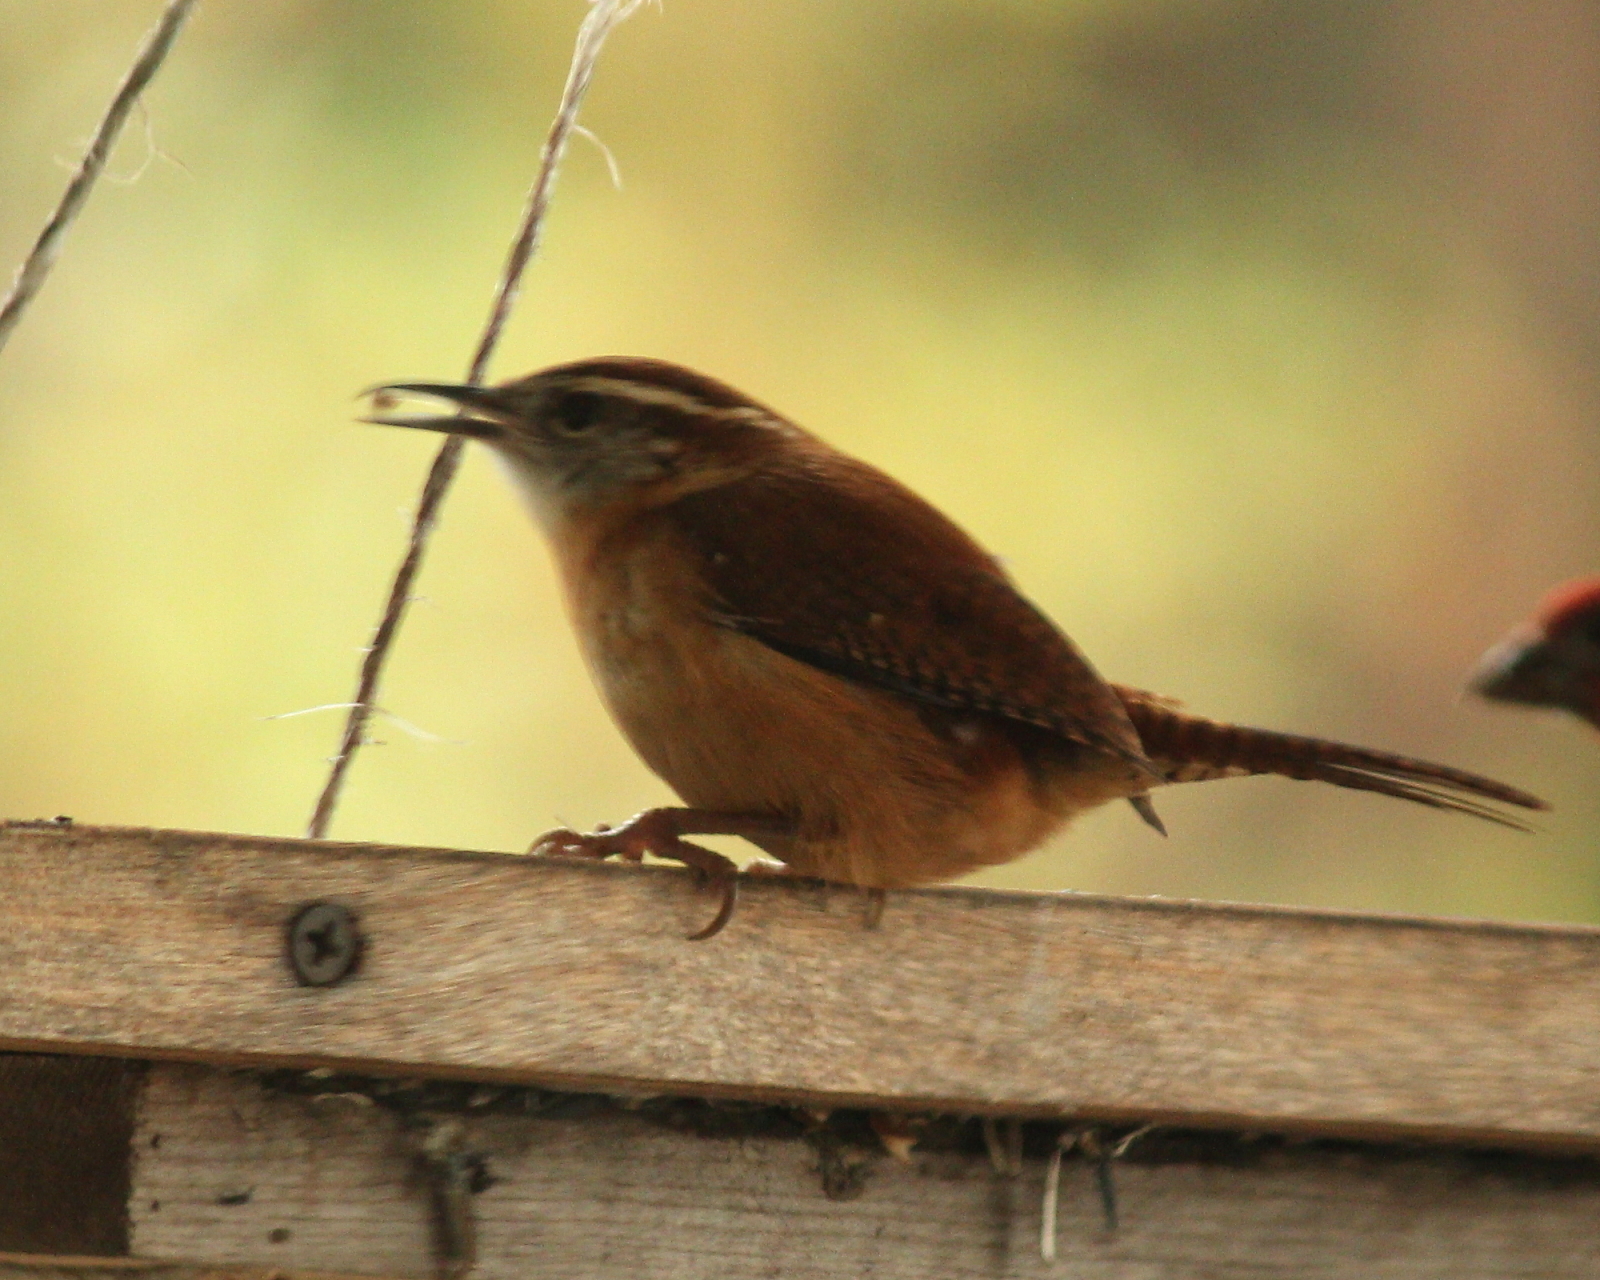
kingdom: Animalia
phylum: Chordata
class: Aves
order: Passeriformes
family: Troglodytidae
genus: Thryothorus
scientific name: Thryothorus ludovicianus
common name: Carolina wren
